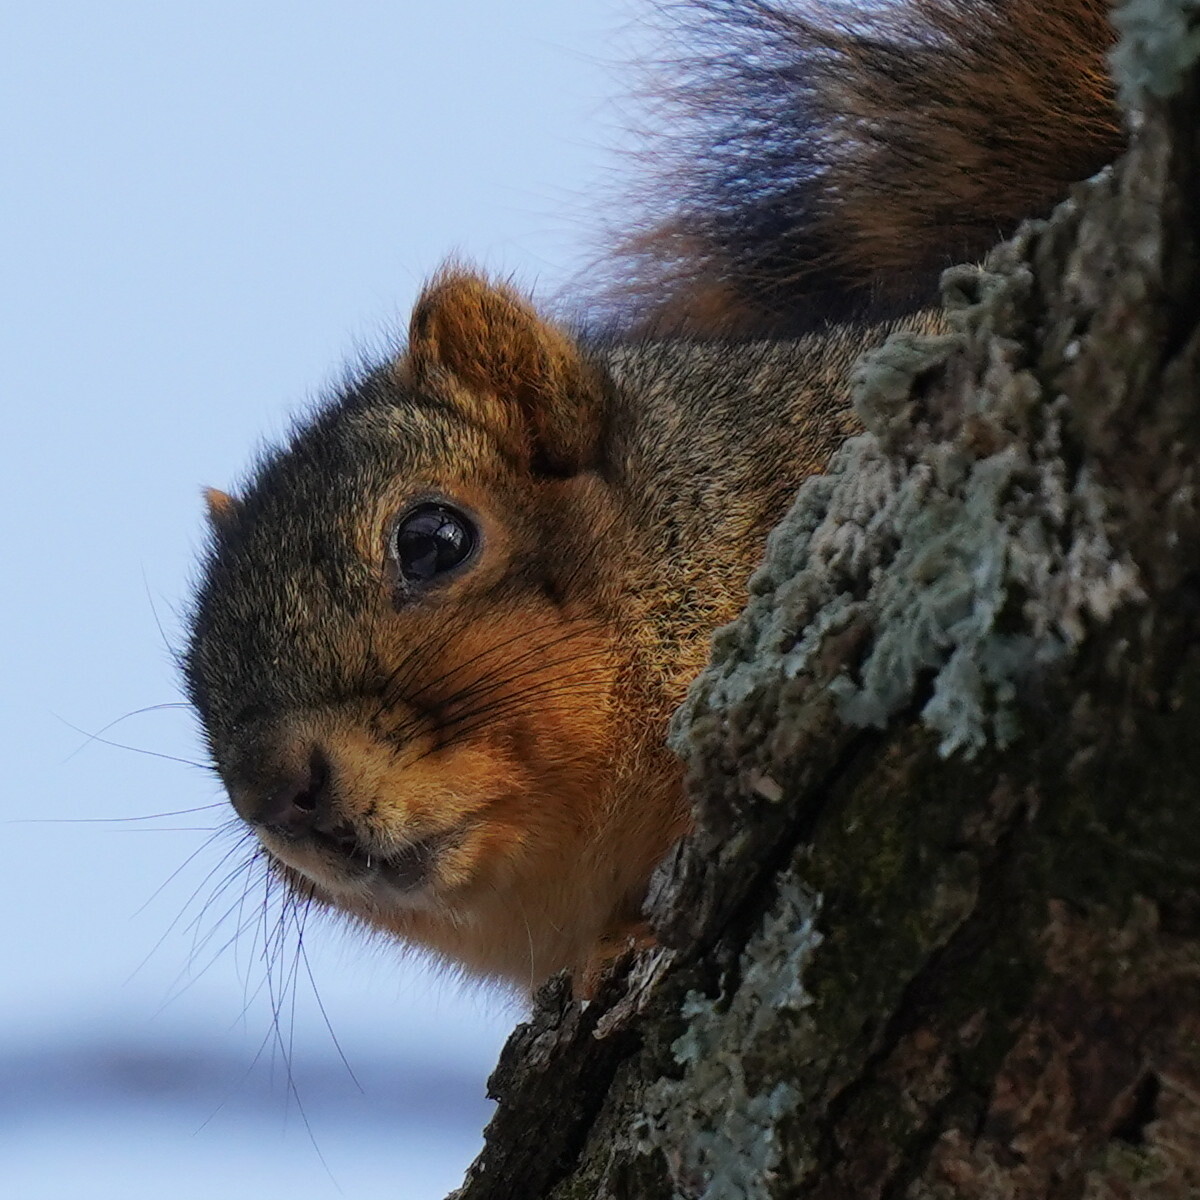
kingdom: Animalia
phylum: Chordata
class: Mammalia
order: Rodentia
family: Sciuridae
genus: Sciurus
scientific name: Sciurus niger
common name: Fox squirrel
